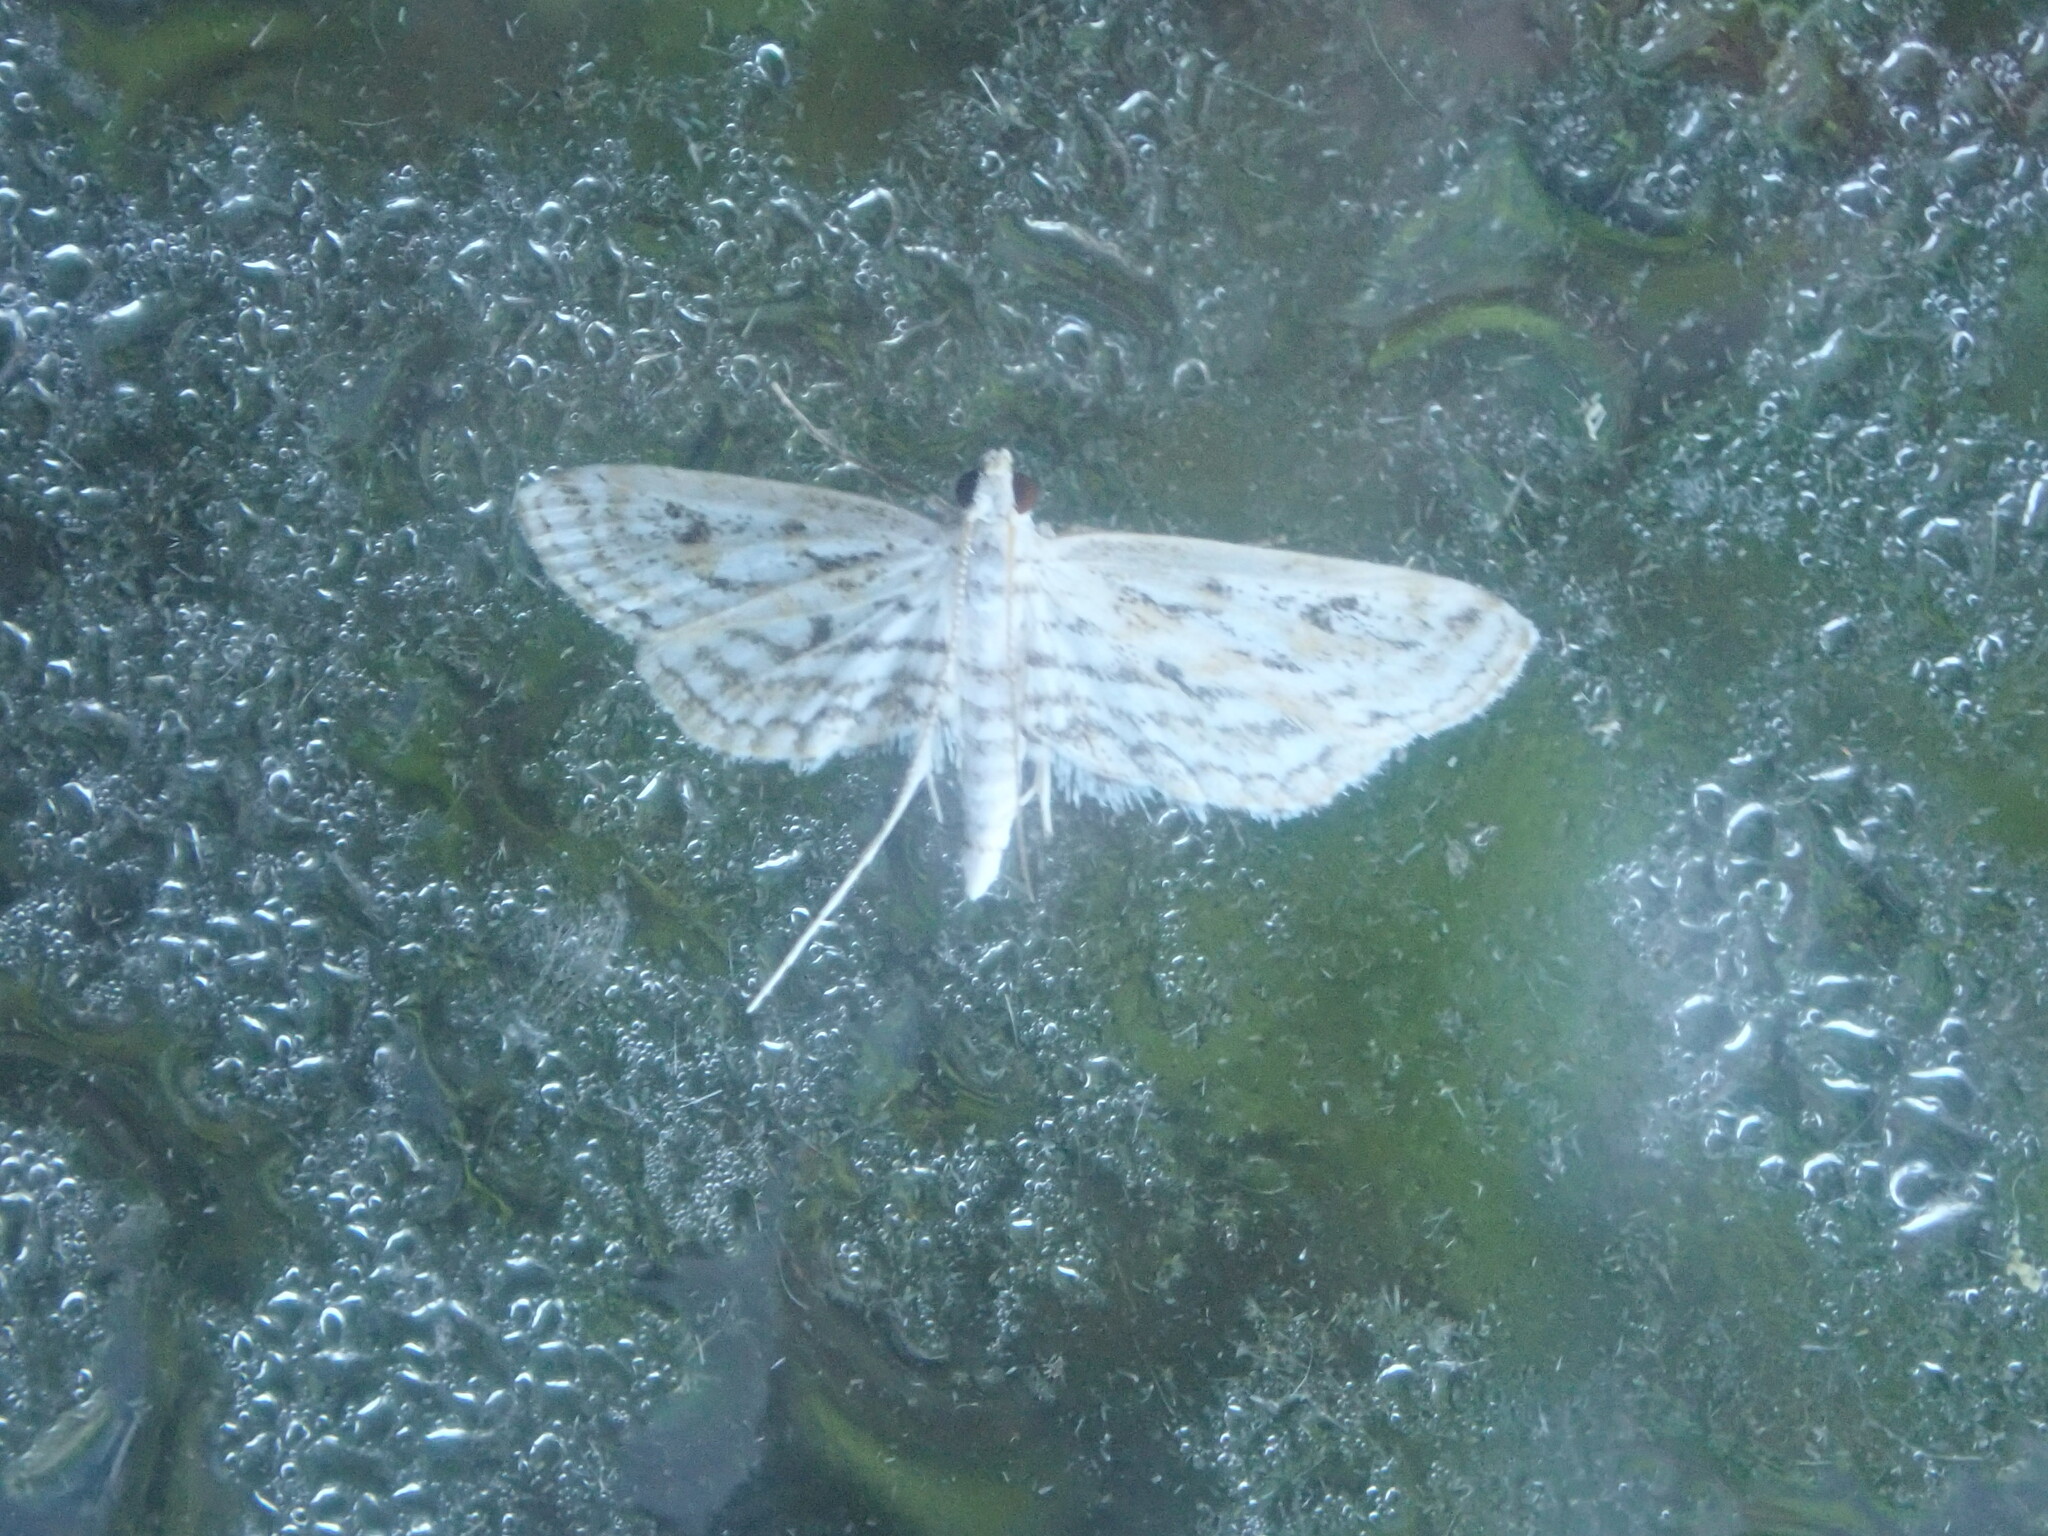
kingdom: Animalia
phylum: Arthropoda
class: Insecta
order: Lepidoptera
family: Crambidae
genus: Parapoynx
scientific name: Parapoynx allionealis
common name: Bladderwort casemaker
